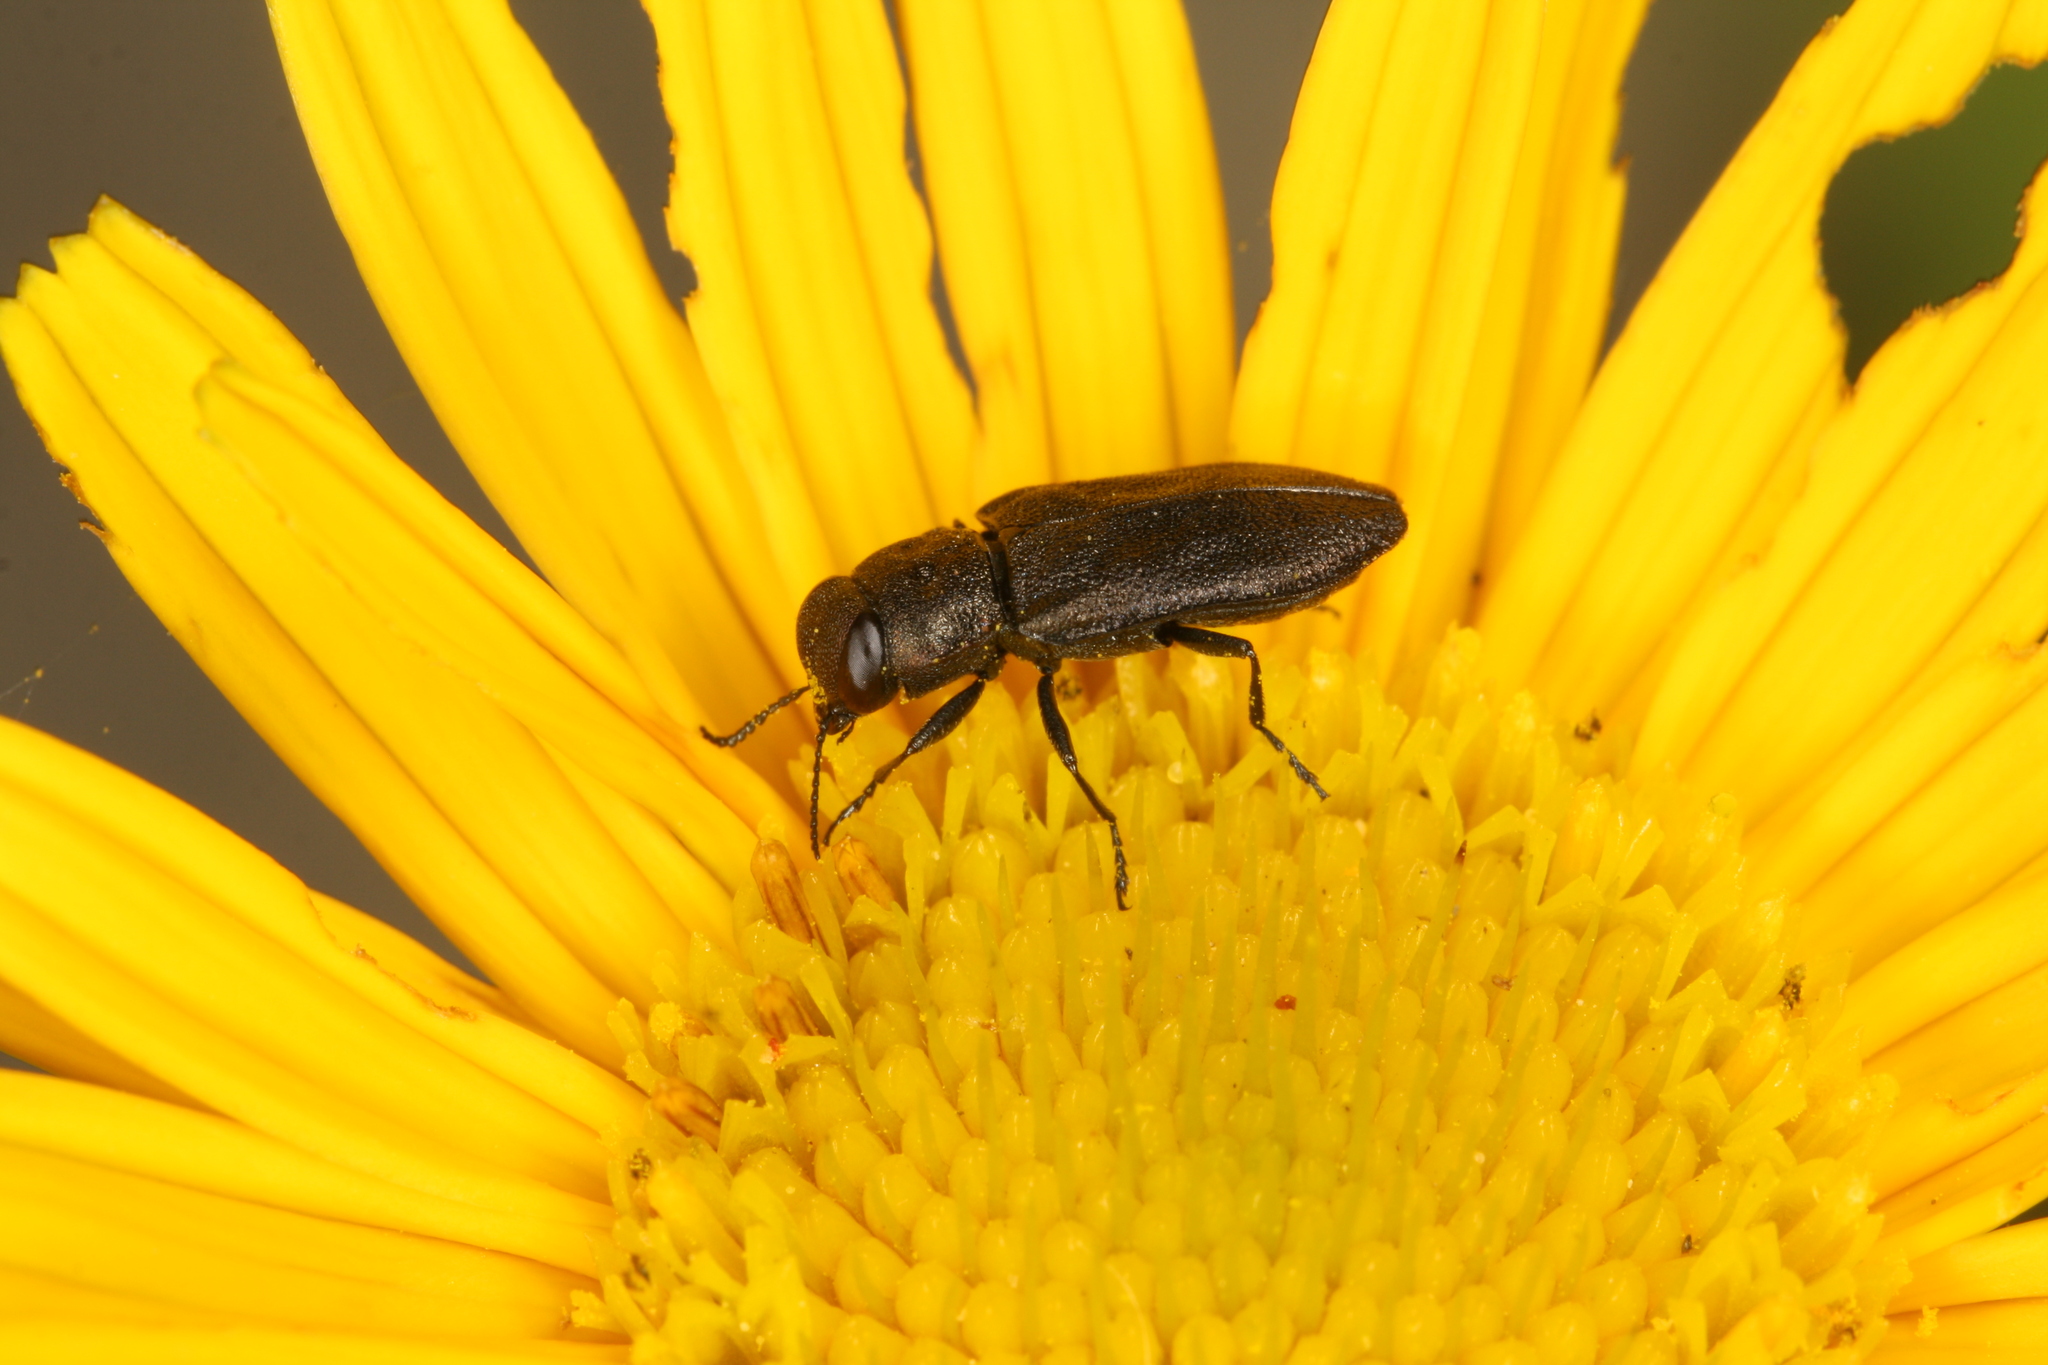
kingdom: Animalia
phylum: Arthropoda
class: Insecta
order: Coleoptera
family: Buprestidae
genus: Anthaxia
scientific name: Anthaxia quadripunctata
